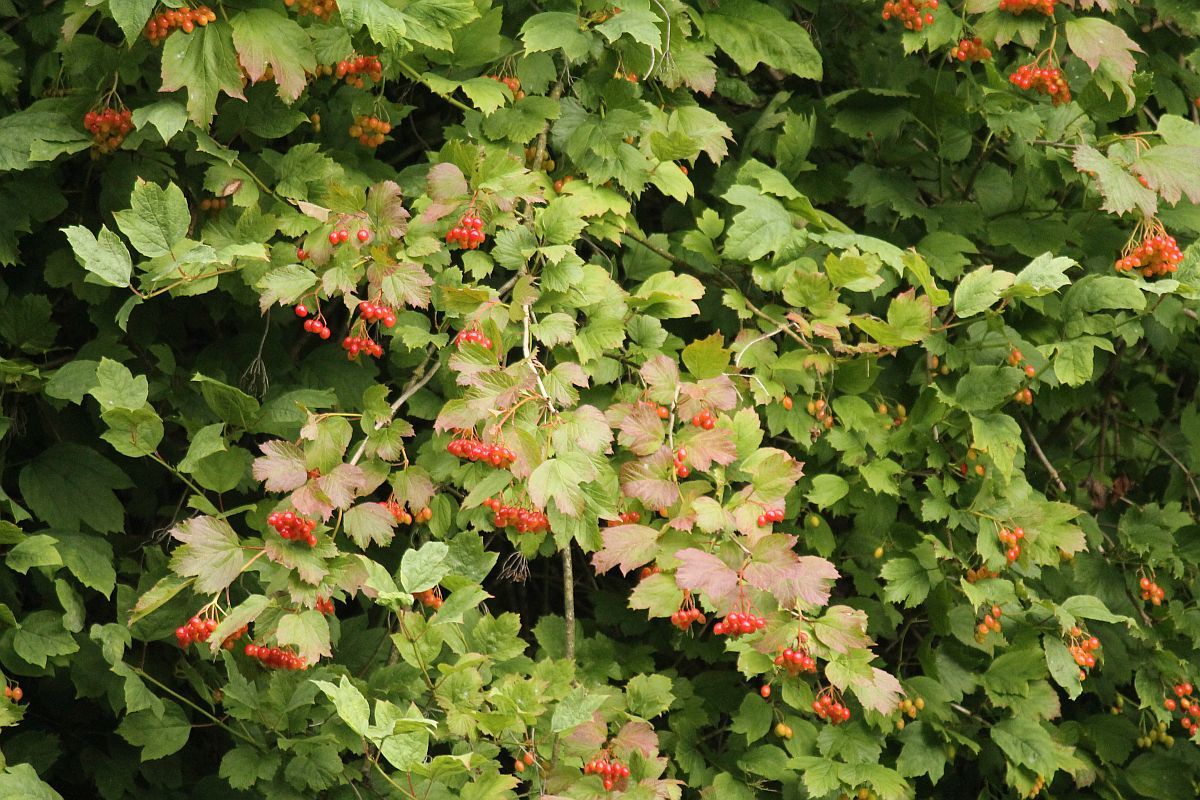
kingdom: Plantae
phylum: Tracheophyta
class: Magnoliopsida
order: Dipsacales
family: Viburnaceae
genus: Viburnum
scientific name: Viburnum opulus
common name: Guelder-rose
